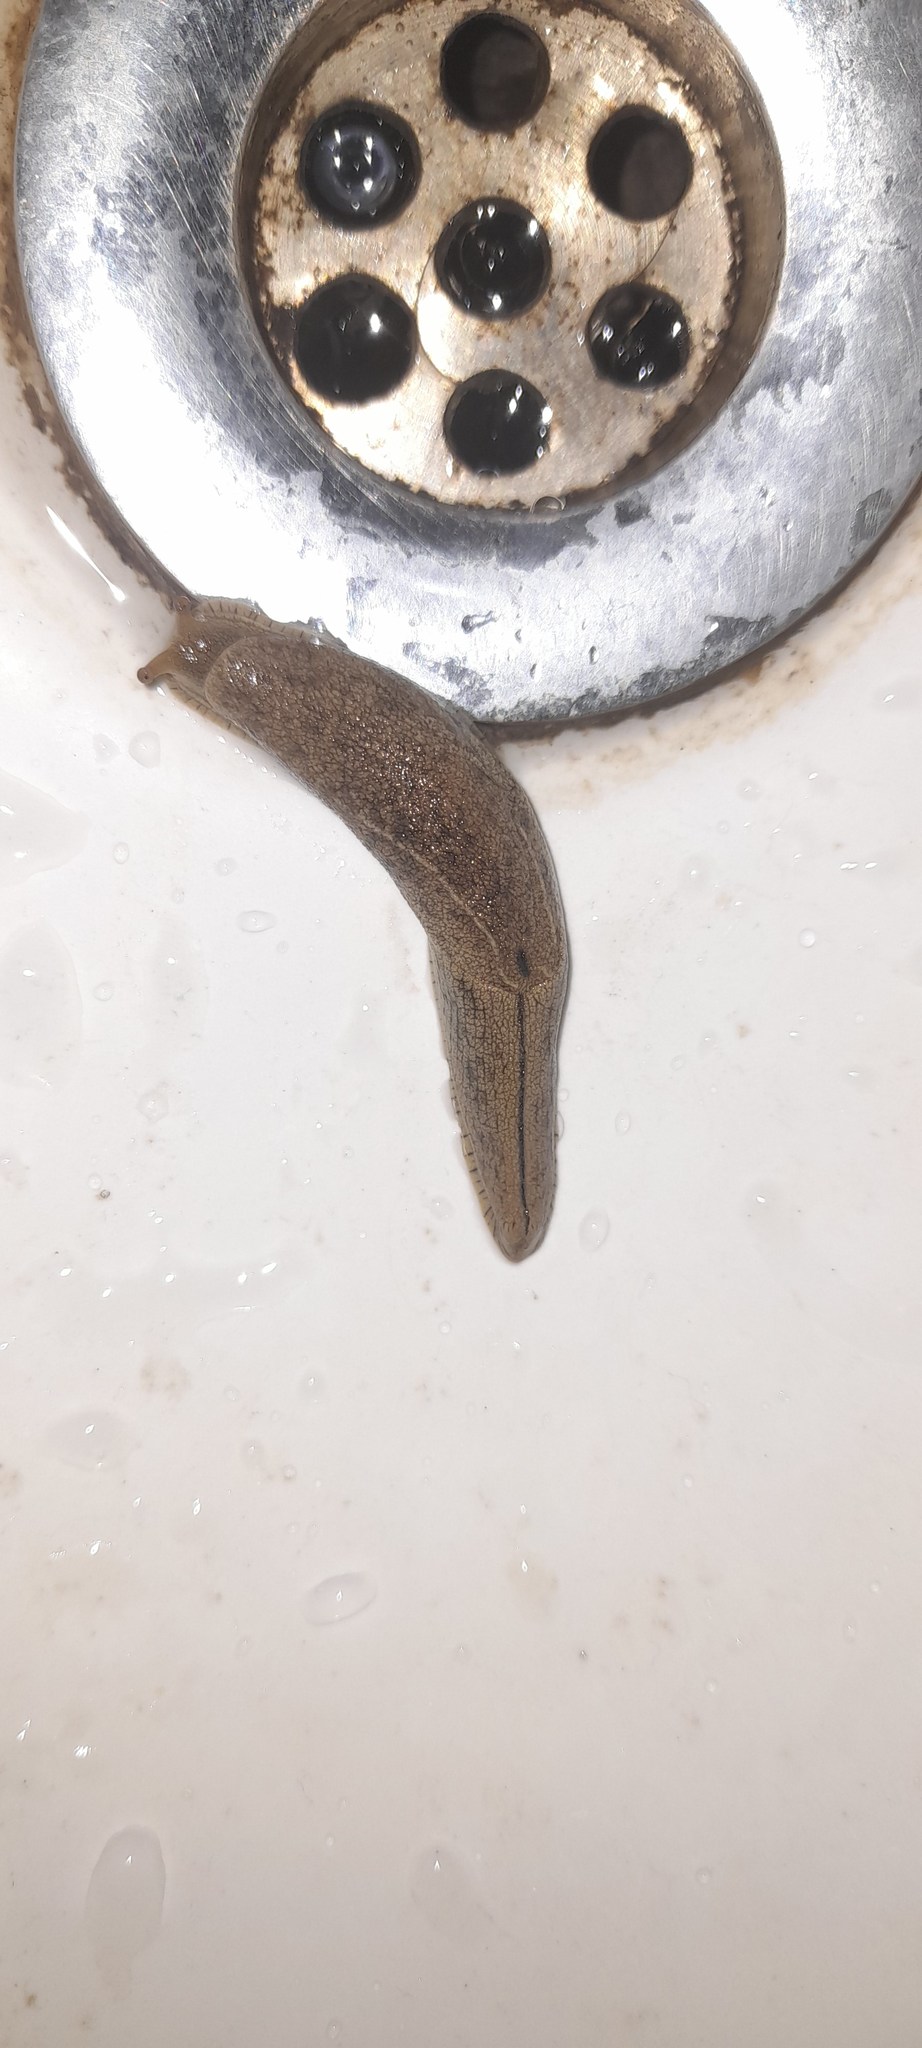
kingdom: Animalia
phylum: Mollusca
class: Gastropoda
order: Stylommatophora
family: Ariophantidae
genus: Mariaella
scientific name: Mariaella dussumieri
